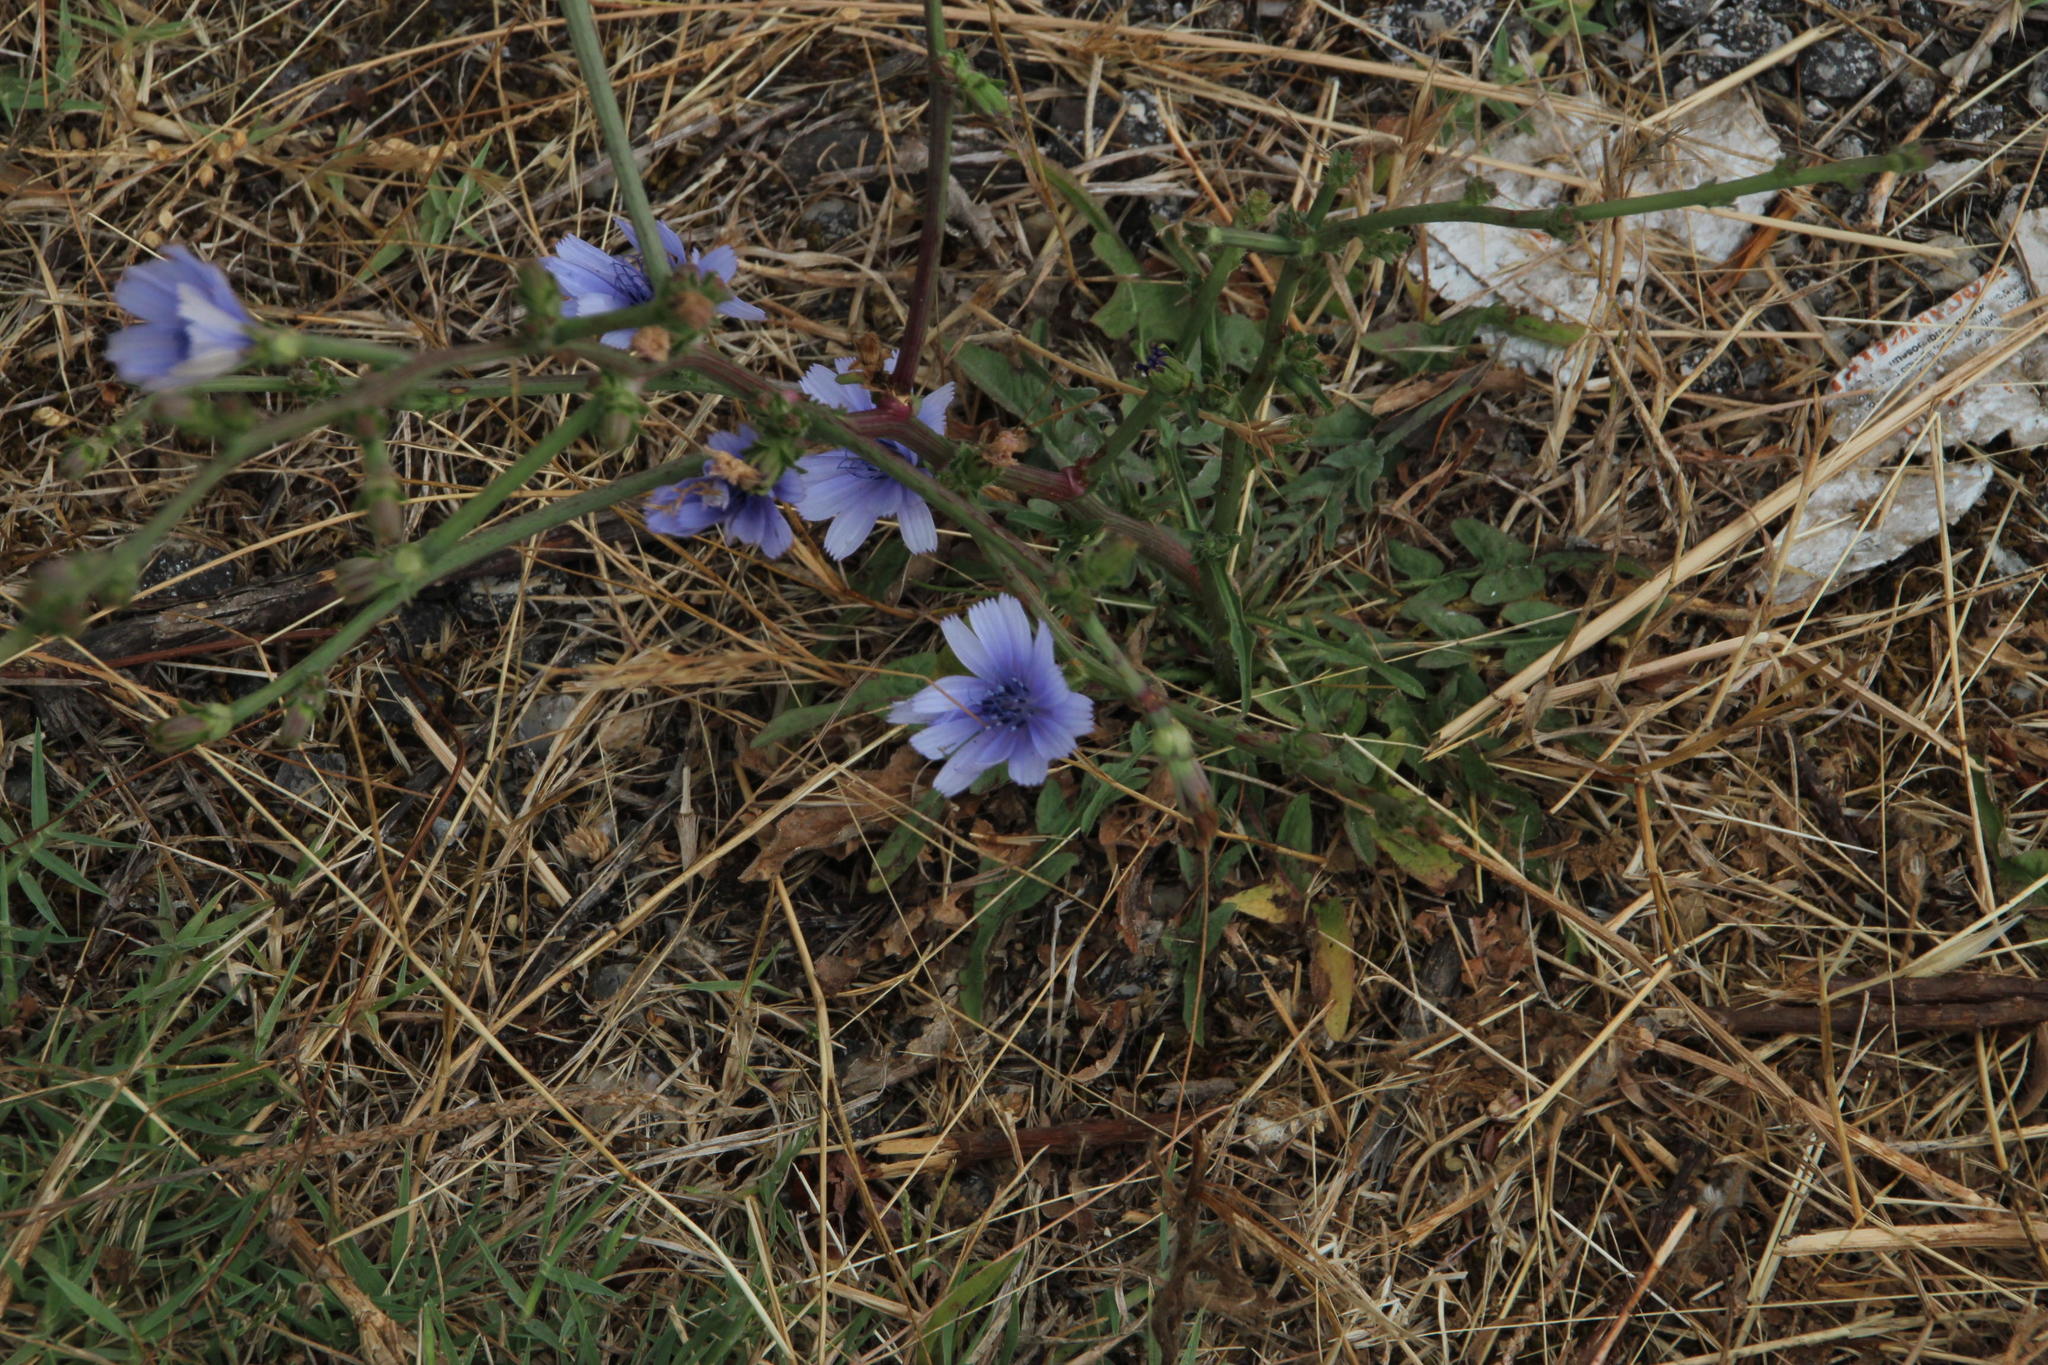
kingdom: Plantae
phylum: Tracheophyta
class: Magnoliopsida
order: Asterales
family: Asteraceae
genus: Cichorium
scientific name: Cichorium intybus
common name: Chicory
